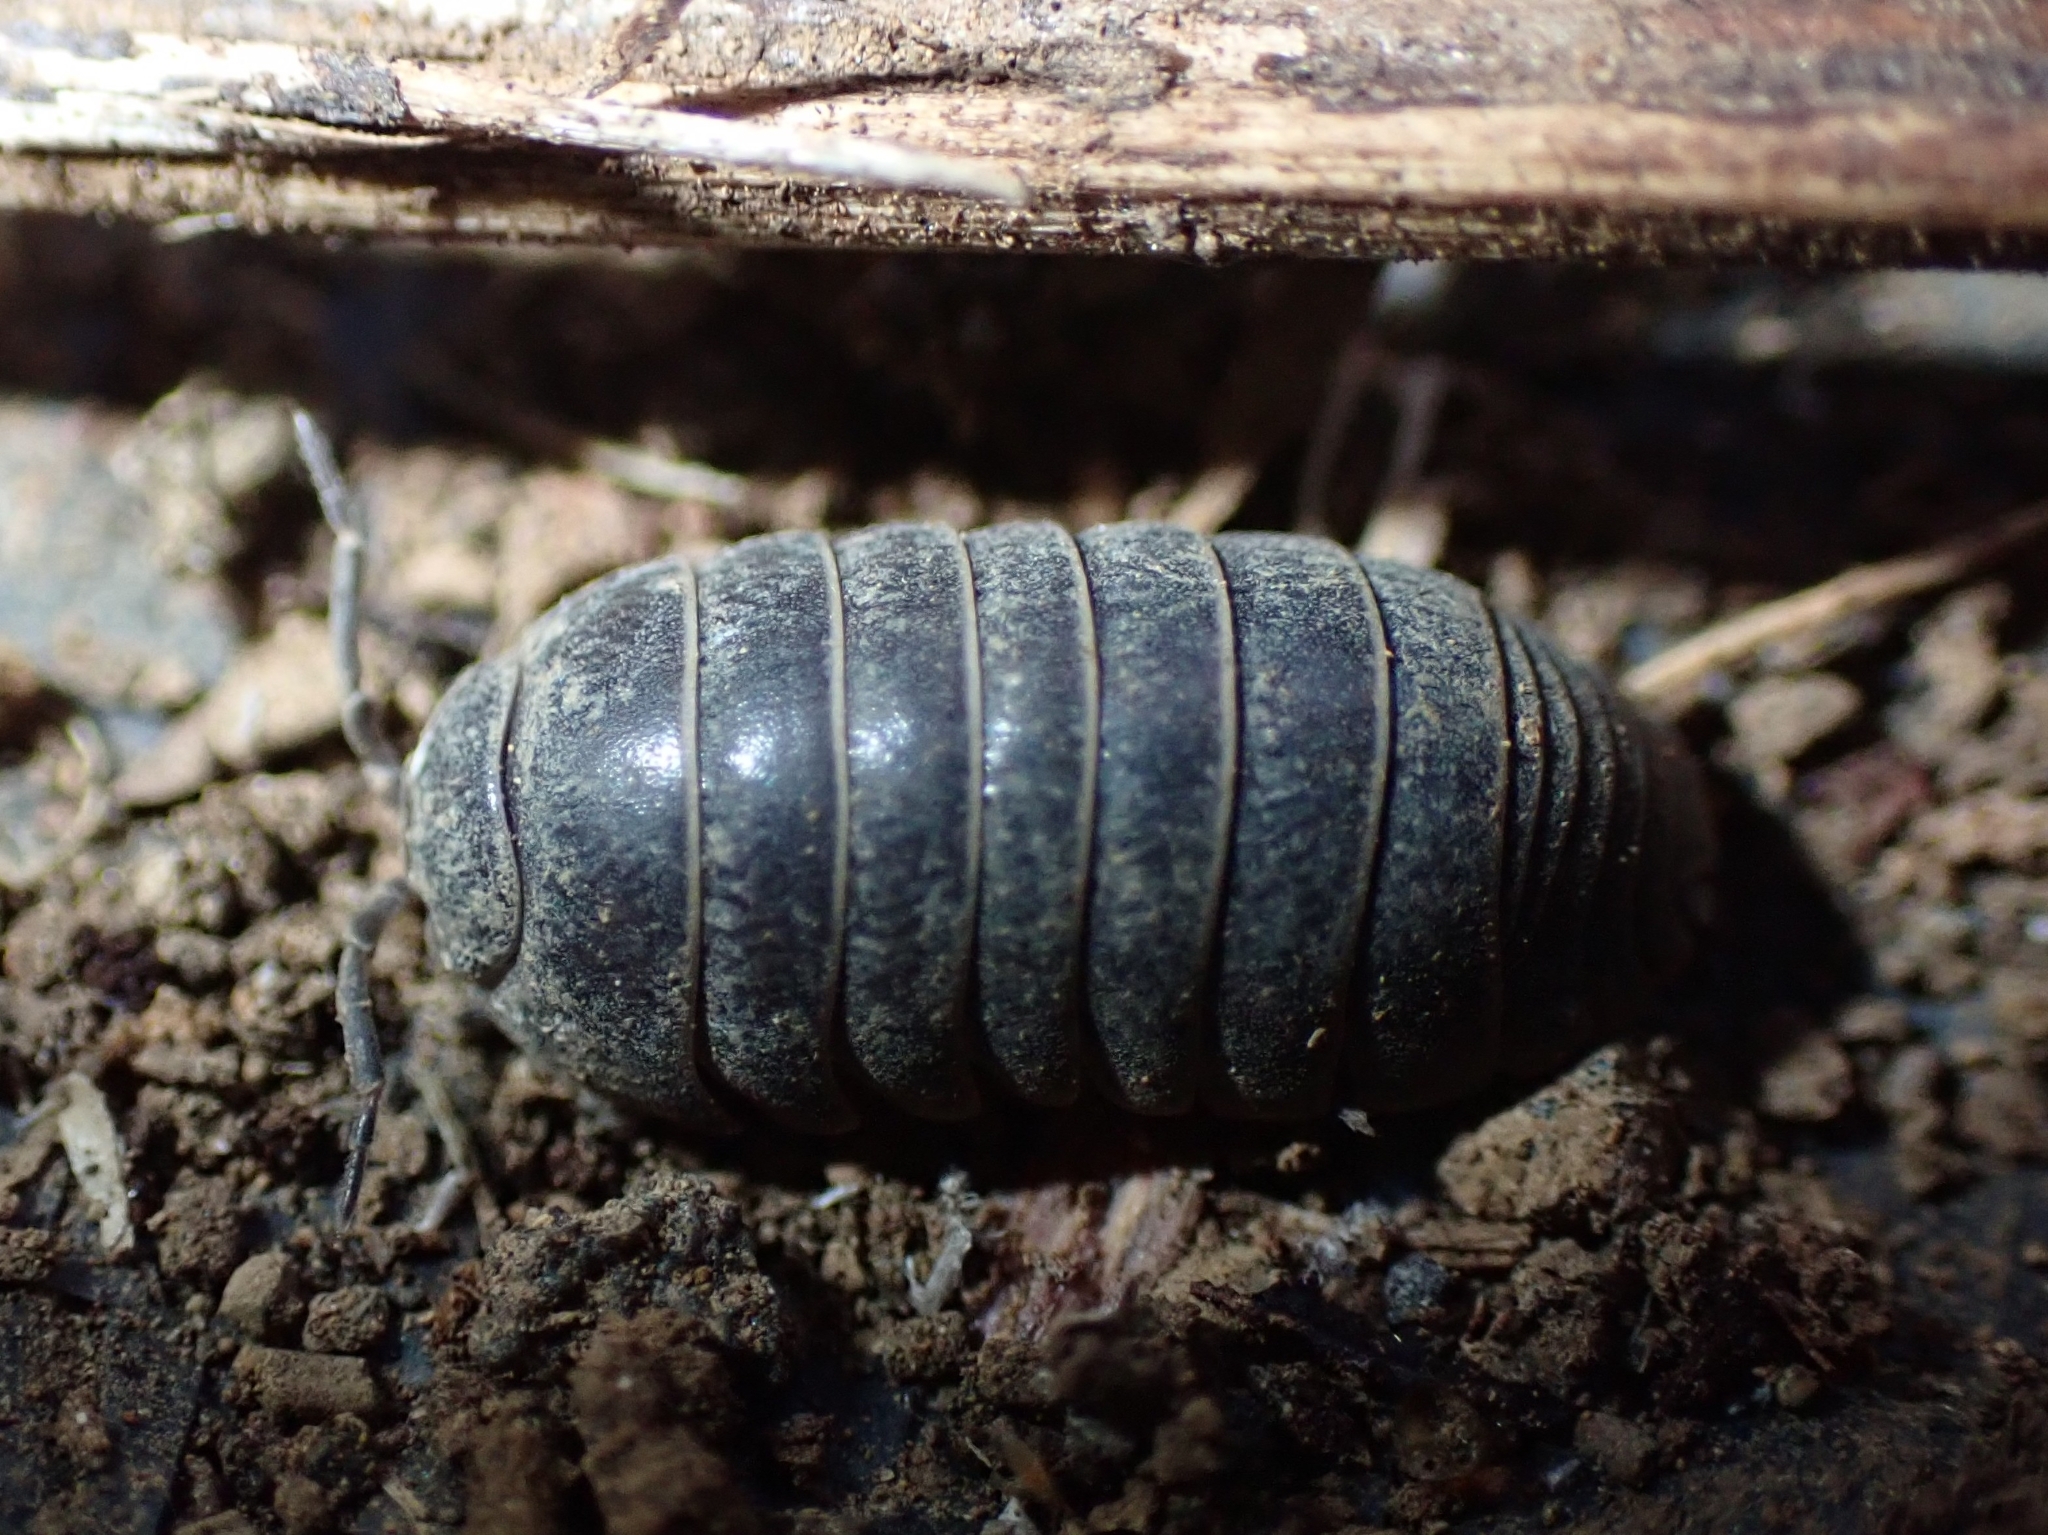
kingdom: Animalia
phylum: Arthropoda
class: Malacostraca
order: Isopoda
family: Armadillidiidae
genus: Armadillidium
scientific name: Armadillidium vulgare
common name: Common pill woodlouse
